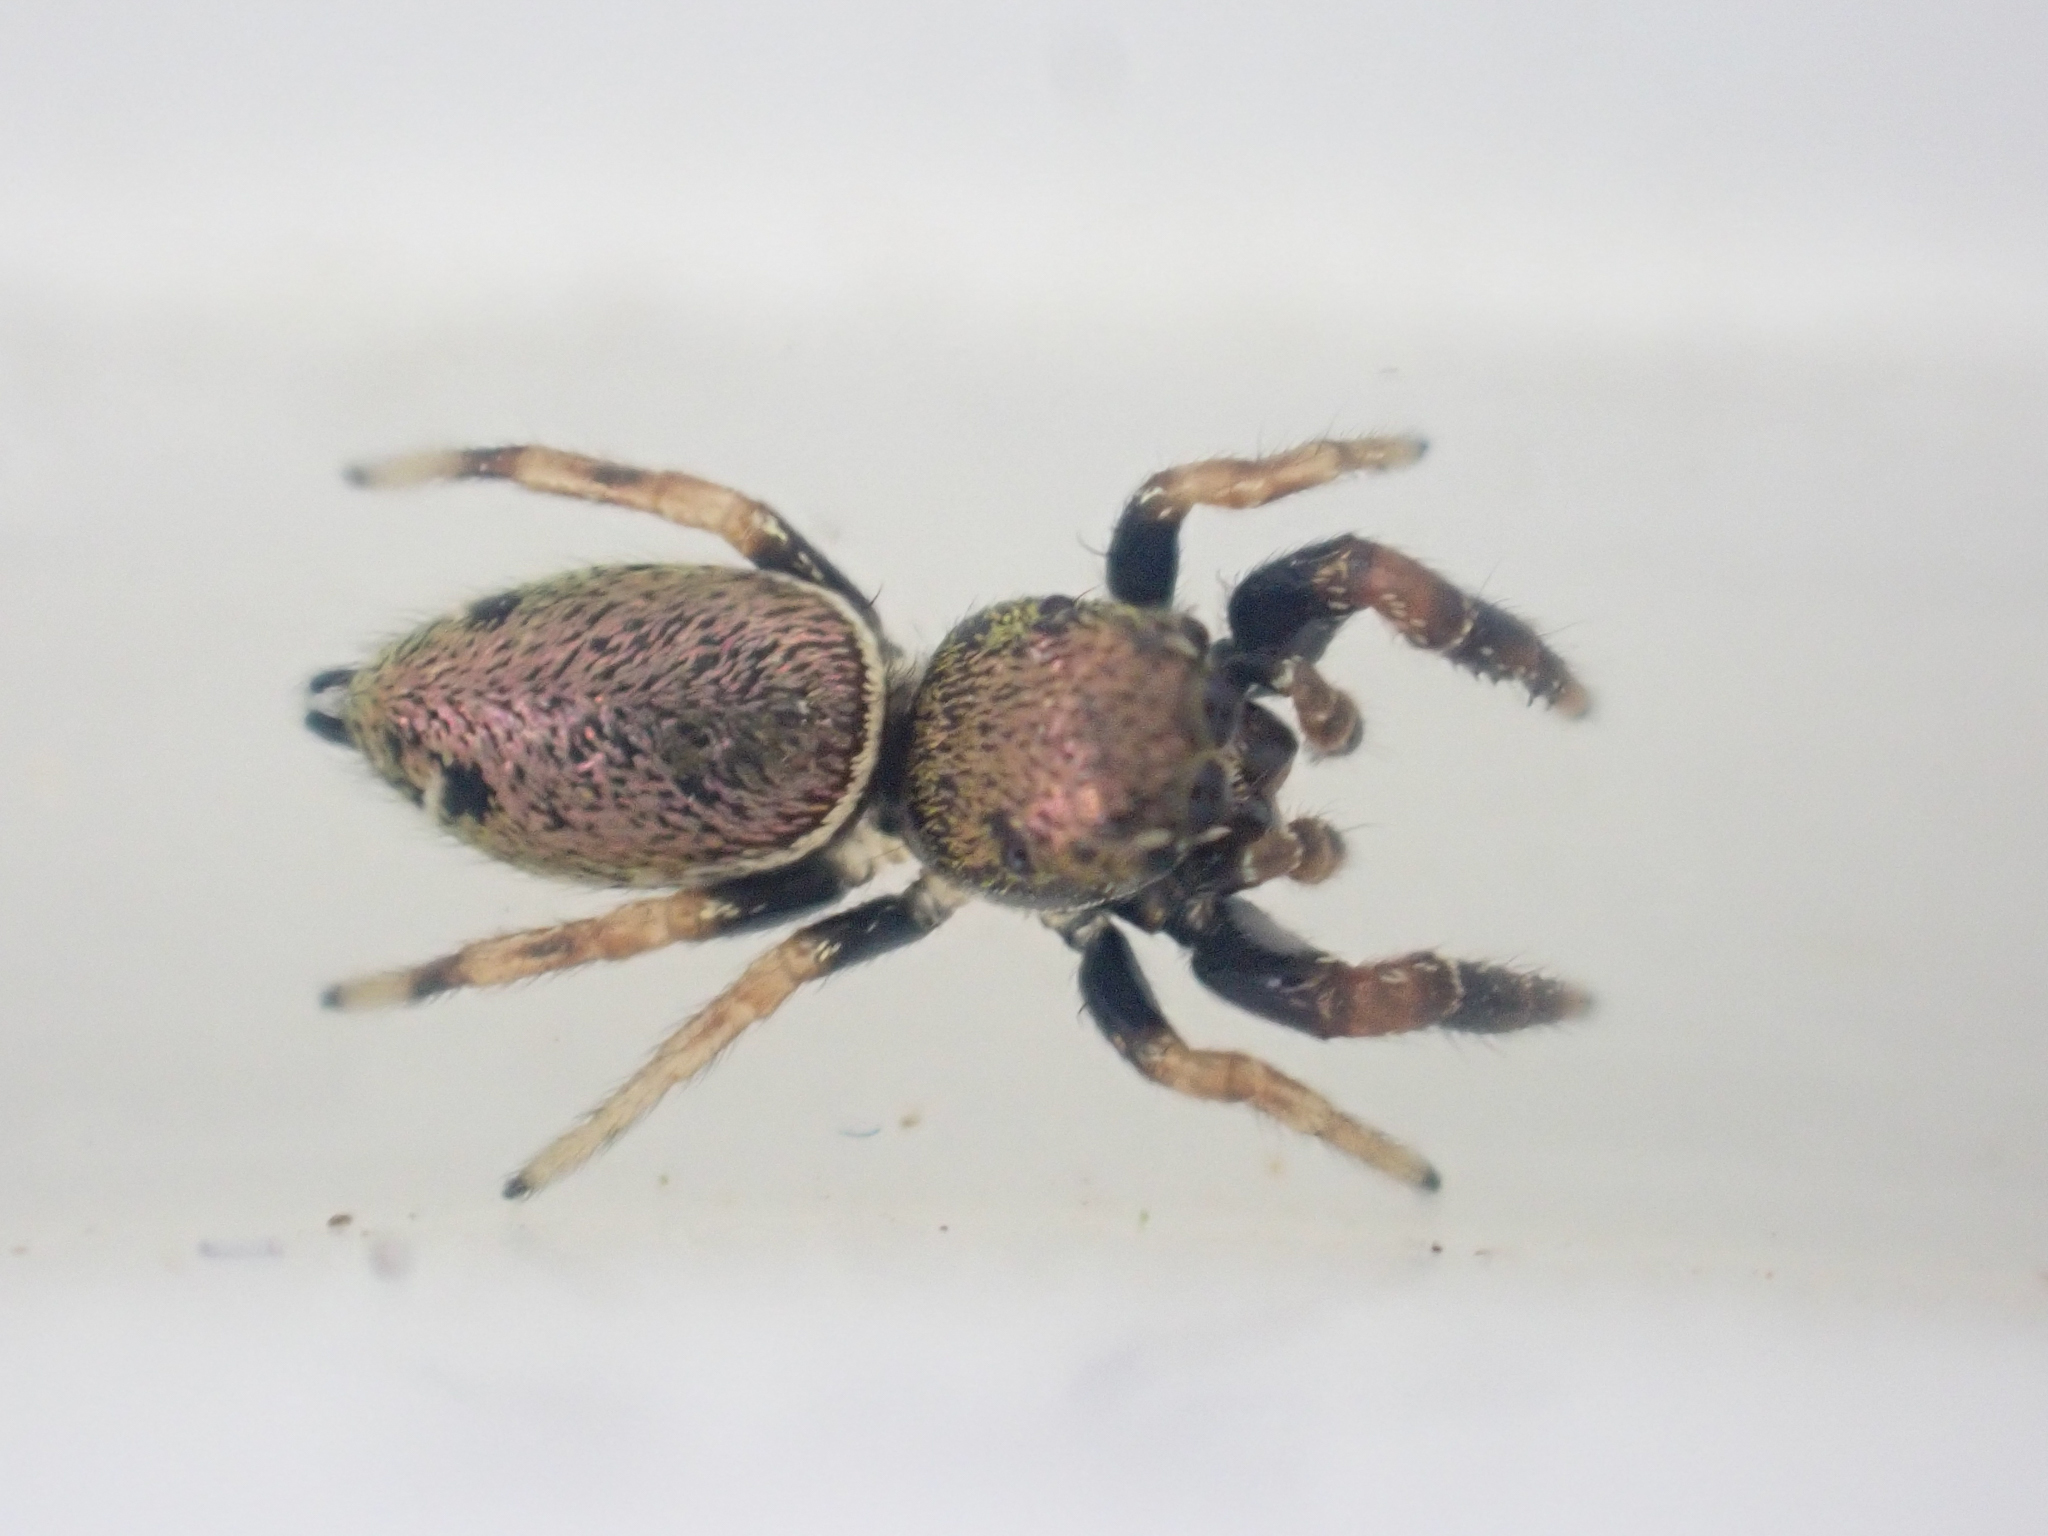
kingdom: Animalia
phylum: Arthropoda
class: Arachnida
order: Araneae
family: Salticidae
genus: Sassacus
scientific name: Sassacus vitis
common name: Jumping spiders
